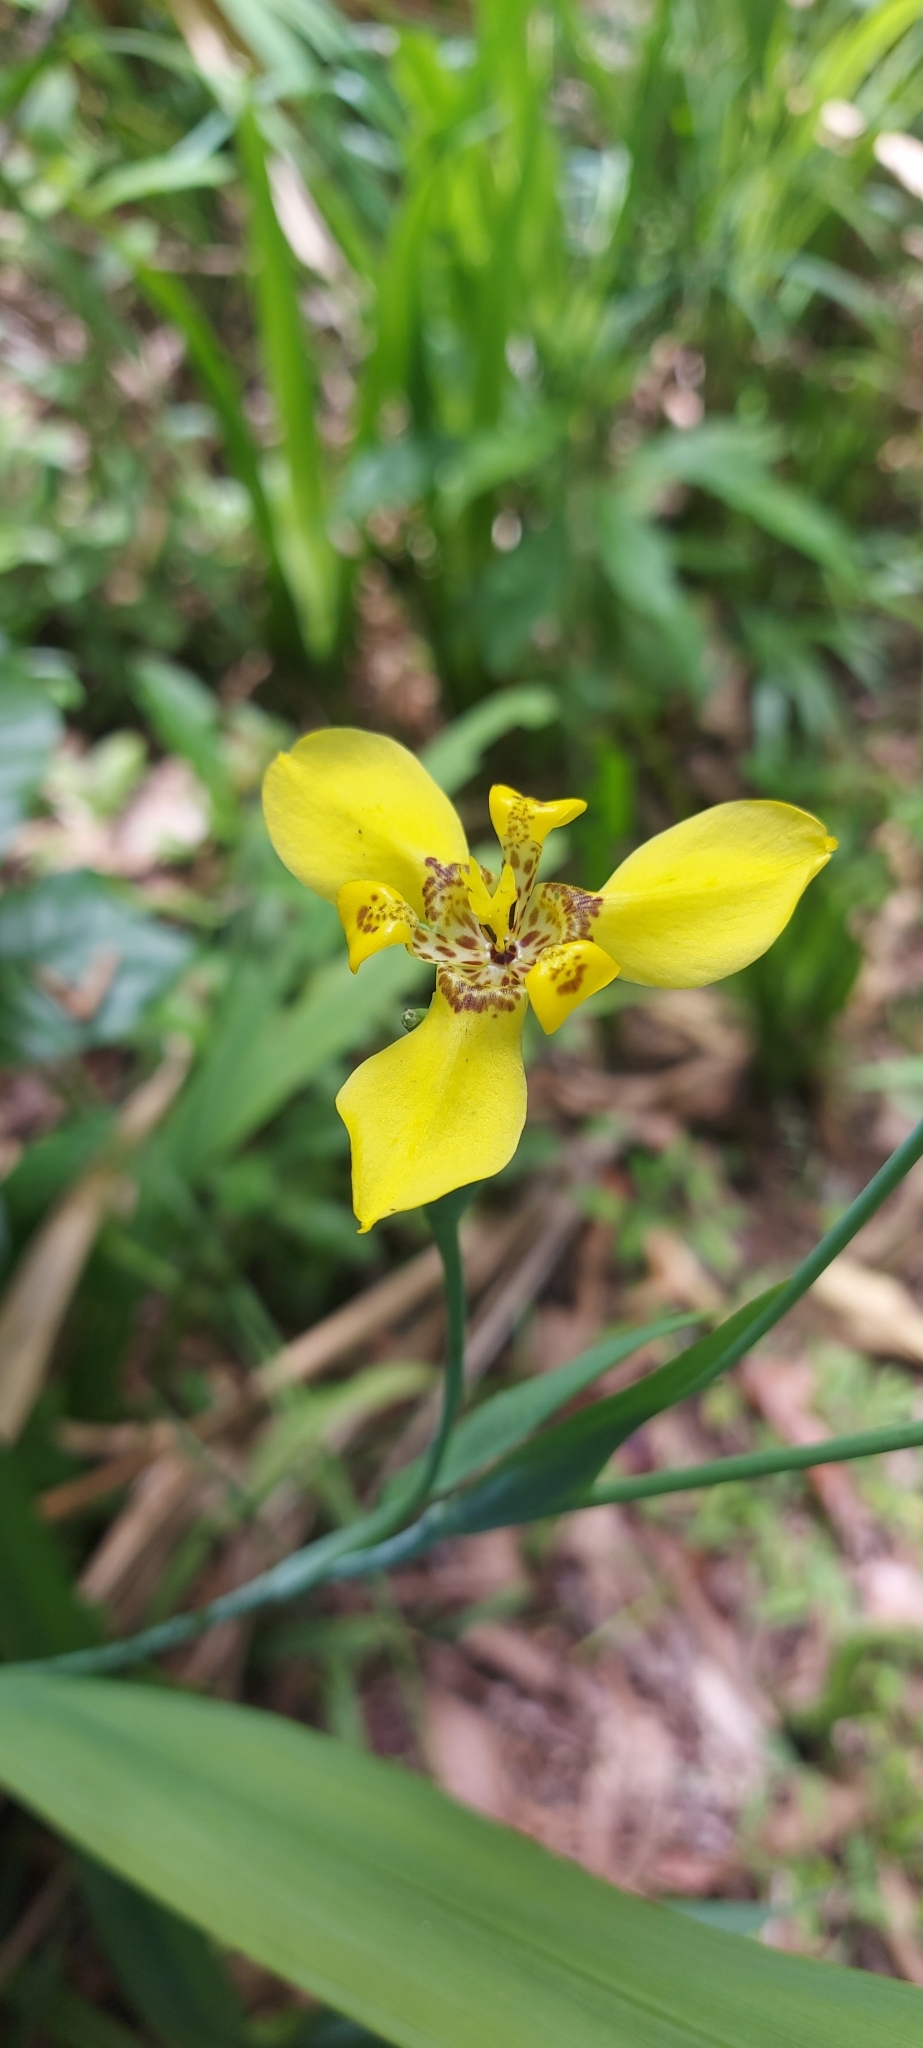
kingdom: Plantae
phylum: Tracheophyta
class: Liliopsida
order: Asparagales
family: Iridaceae
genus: Trimezia
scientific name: Trimezia steyermarkii
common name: Trimezia
